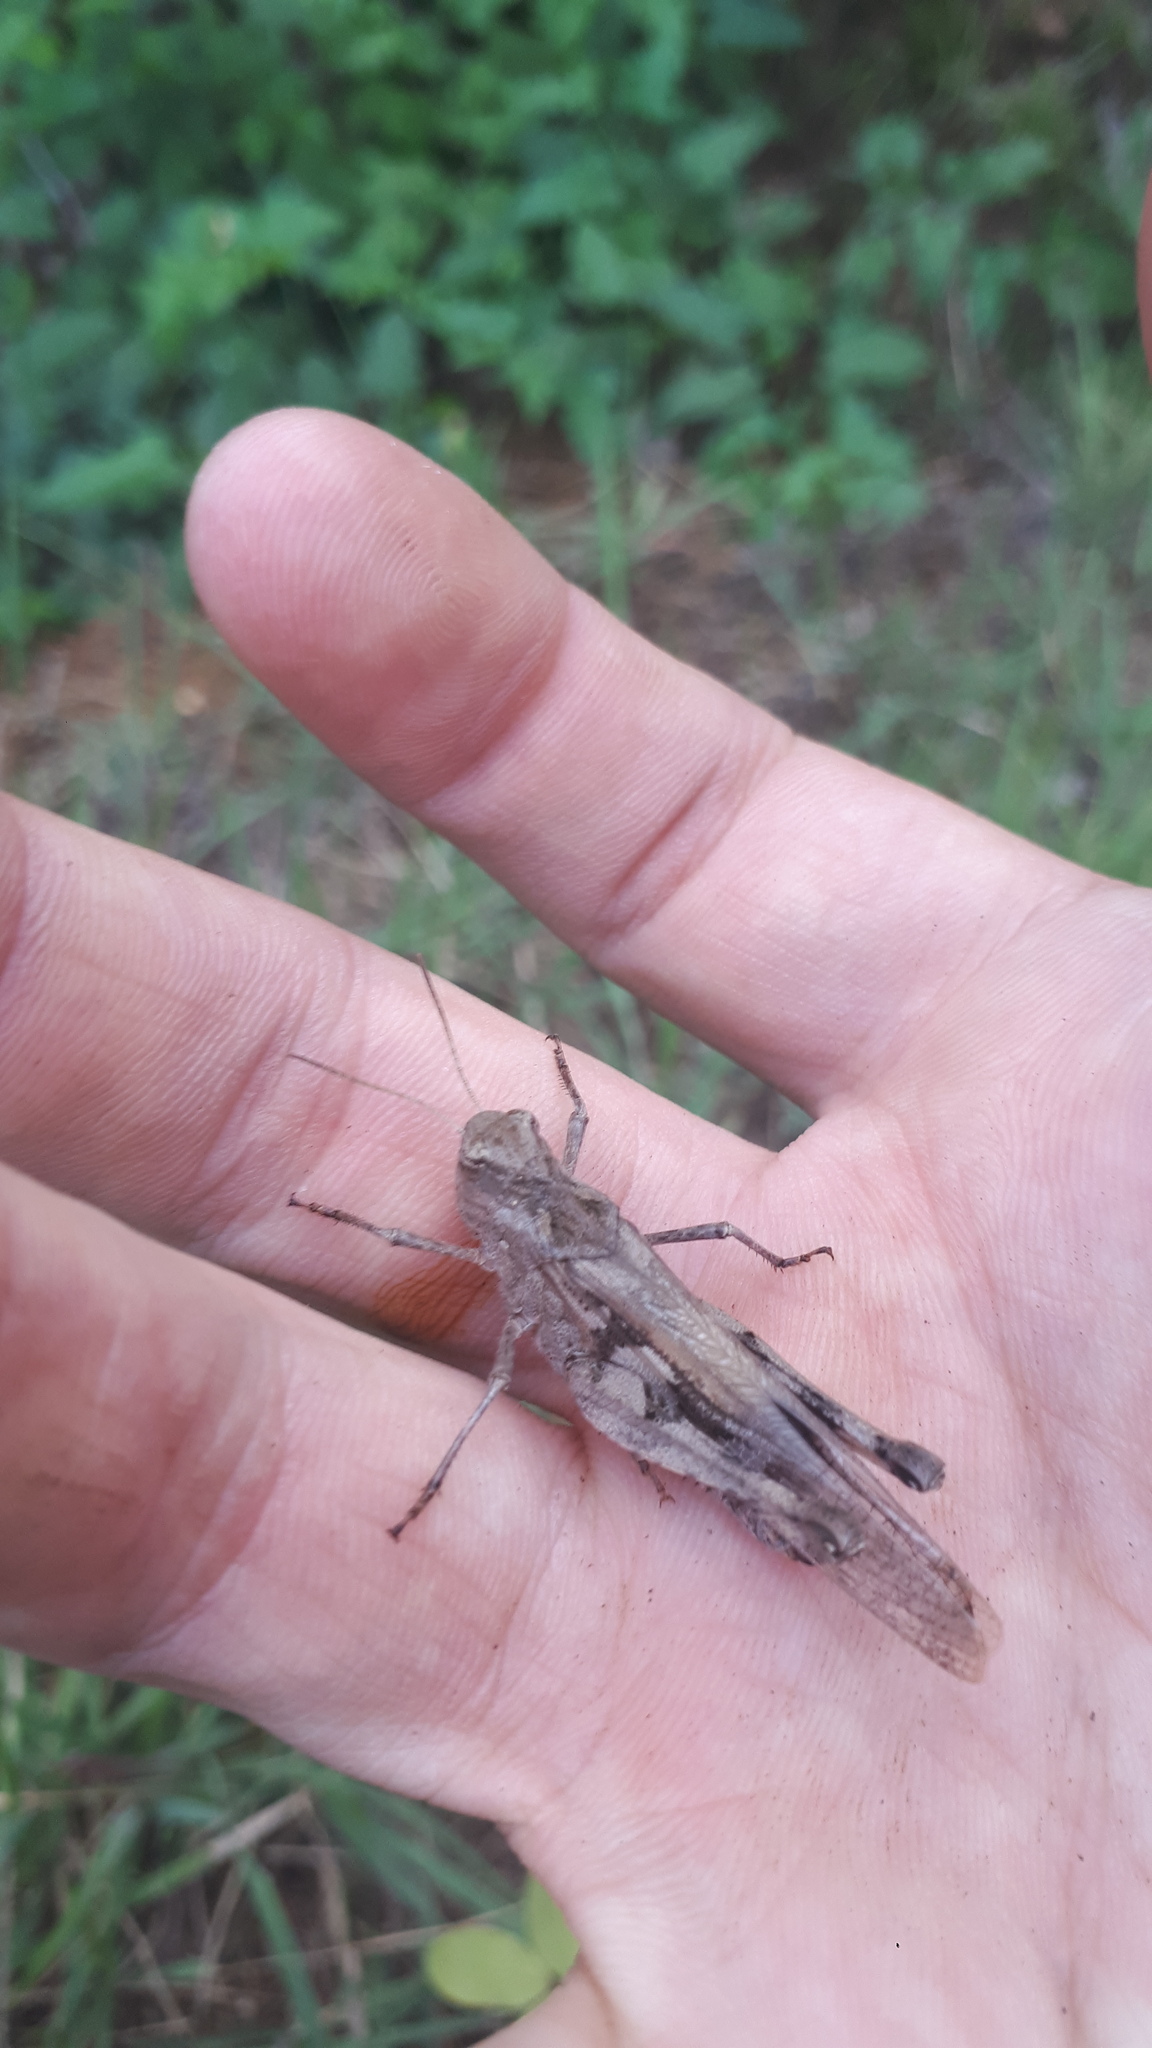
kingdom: Animalia
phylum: Arthropoda
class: Insecta
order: Orthoptera
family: Acrididae
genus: Oedaleus
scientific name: Oedaleus infernalis
